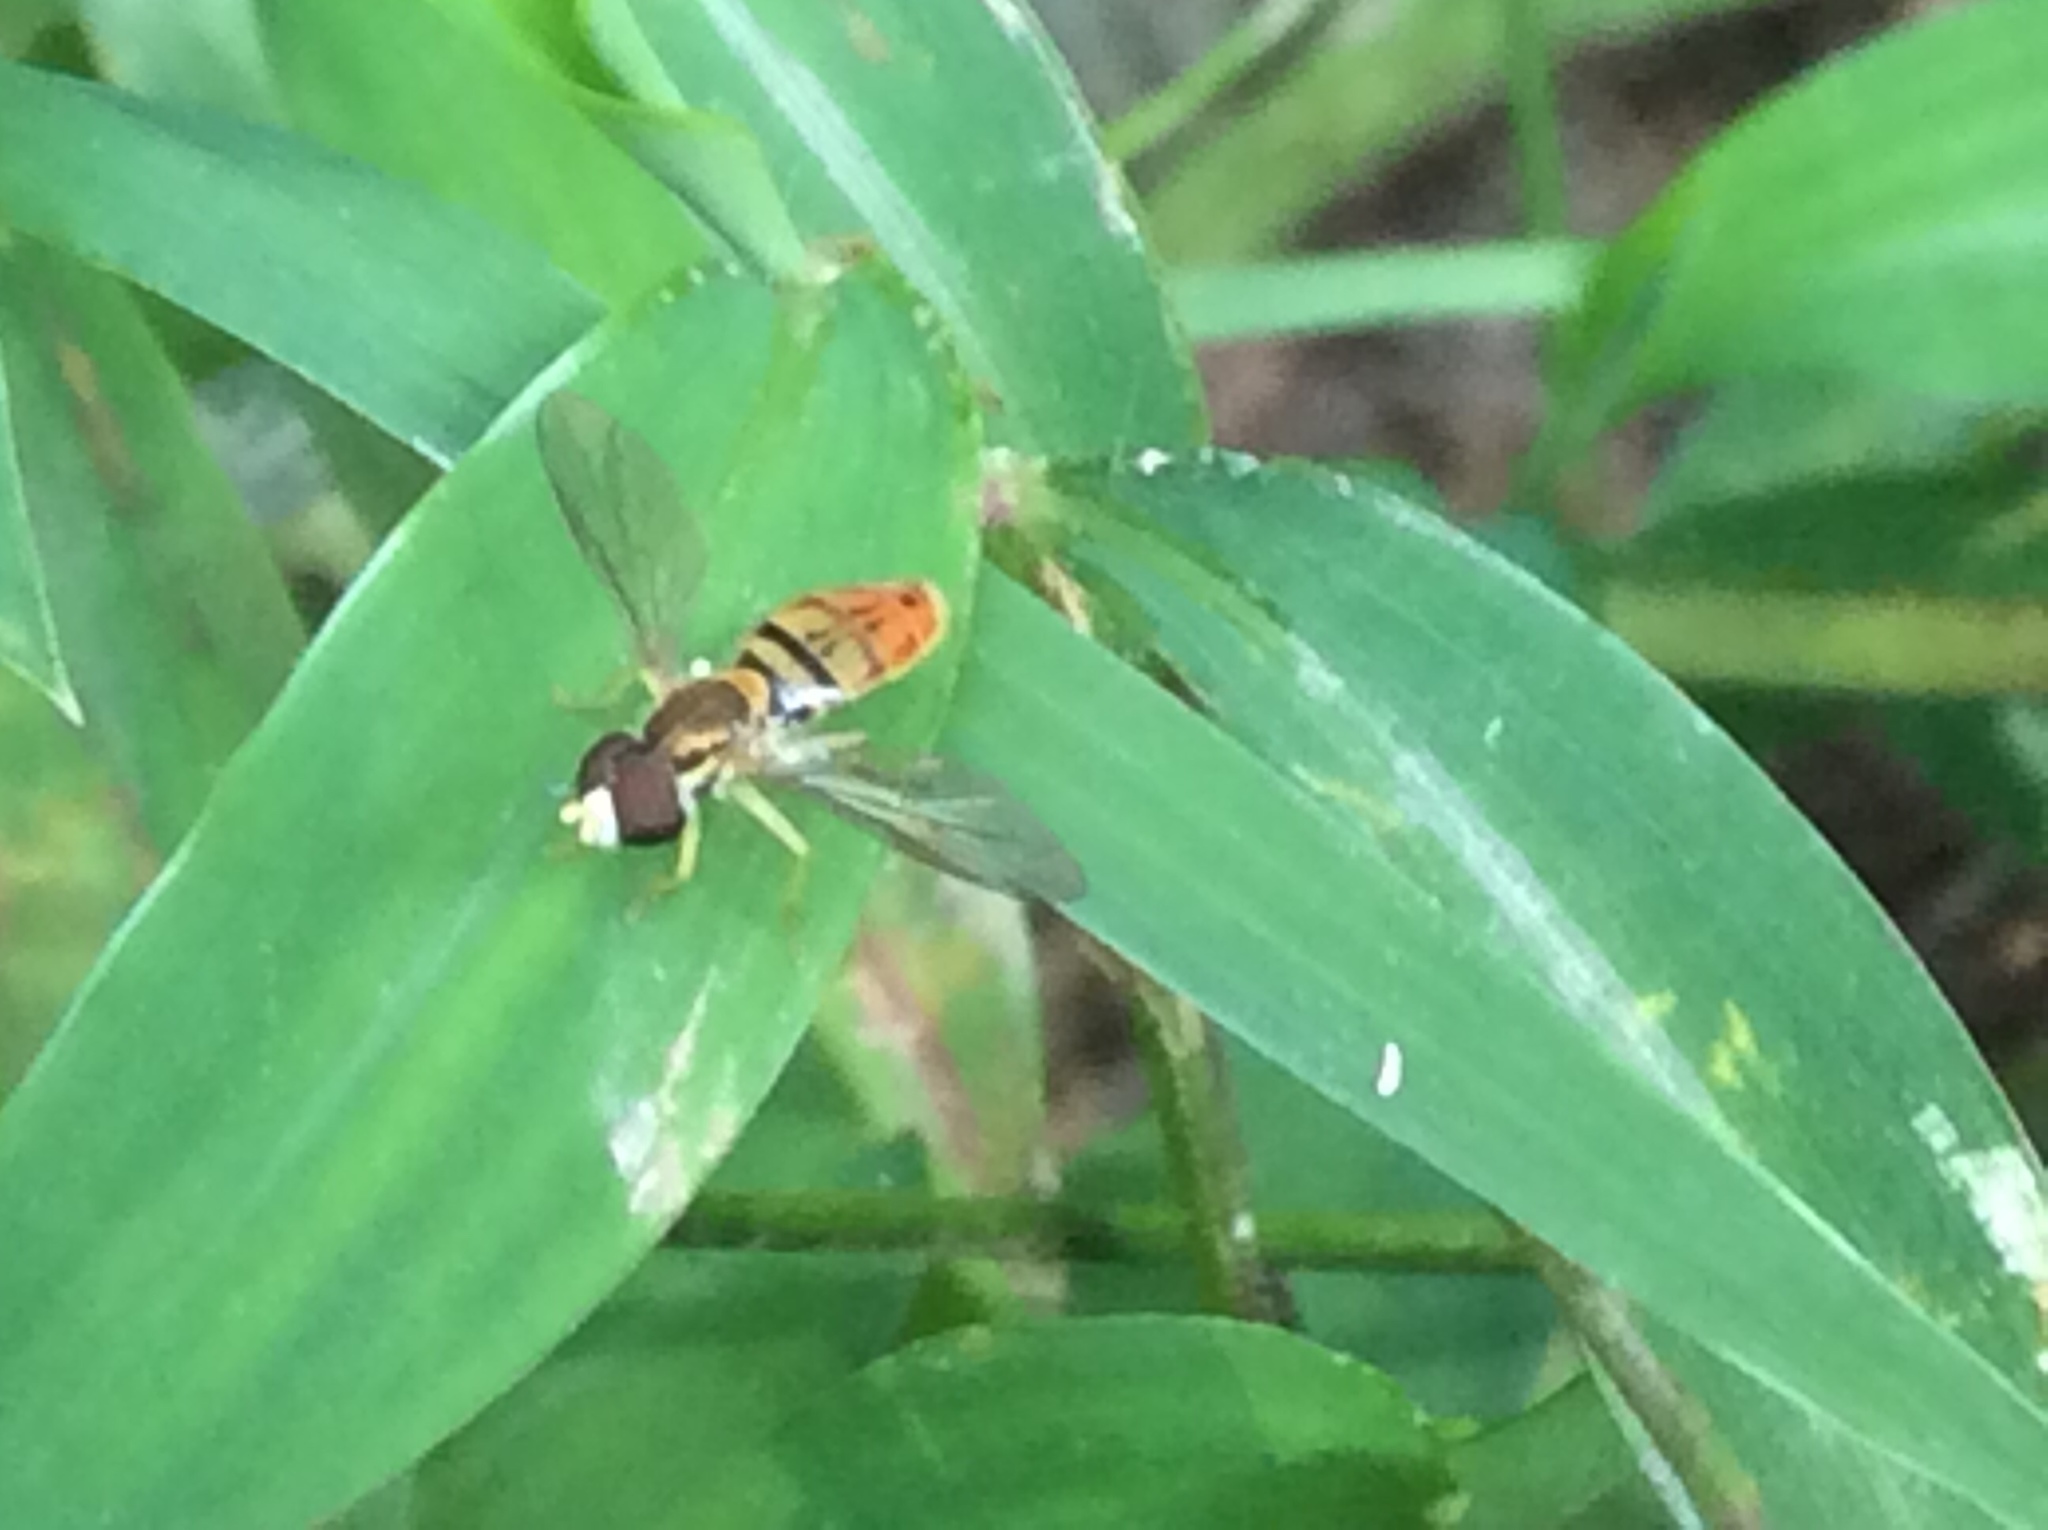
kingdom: Animalia
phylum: Arthropoda
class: Insecta
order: Diptera
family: Syrphidae
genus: Toxomerus
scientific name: Toxomerus marginatus
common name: Syrphid fly
